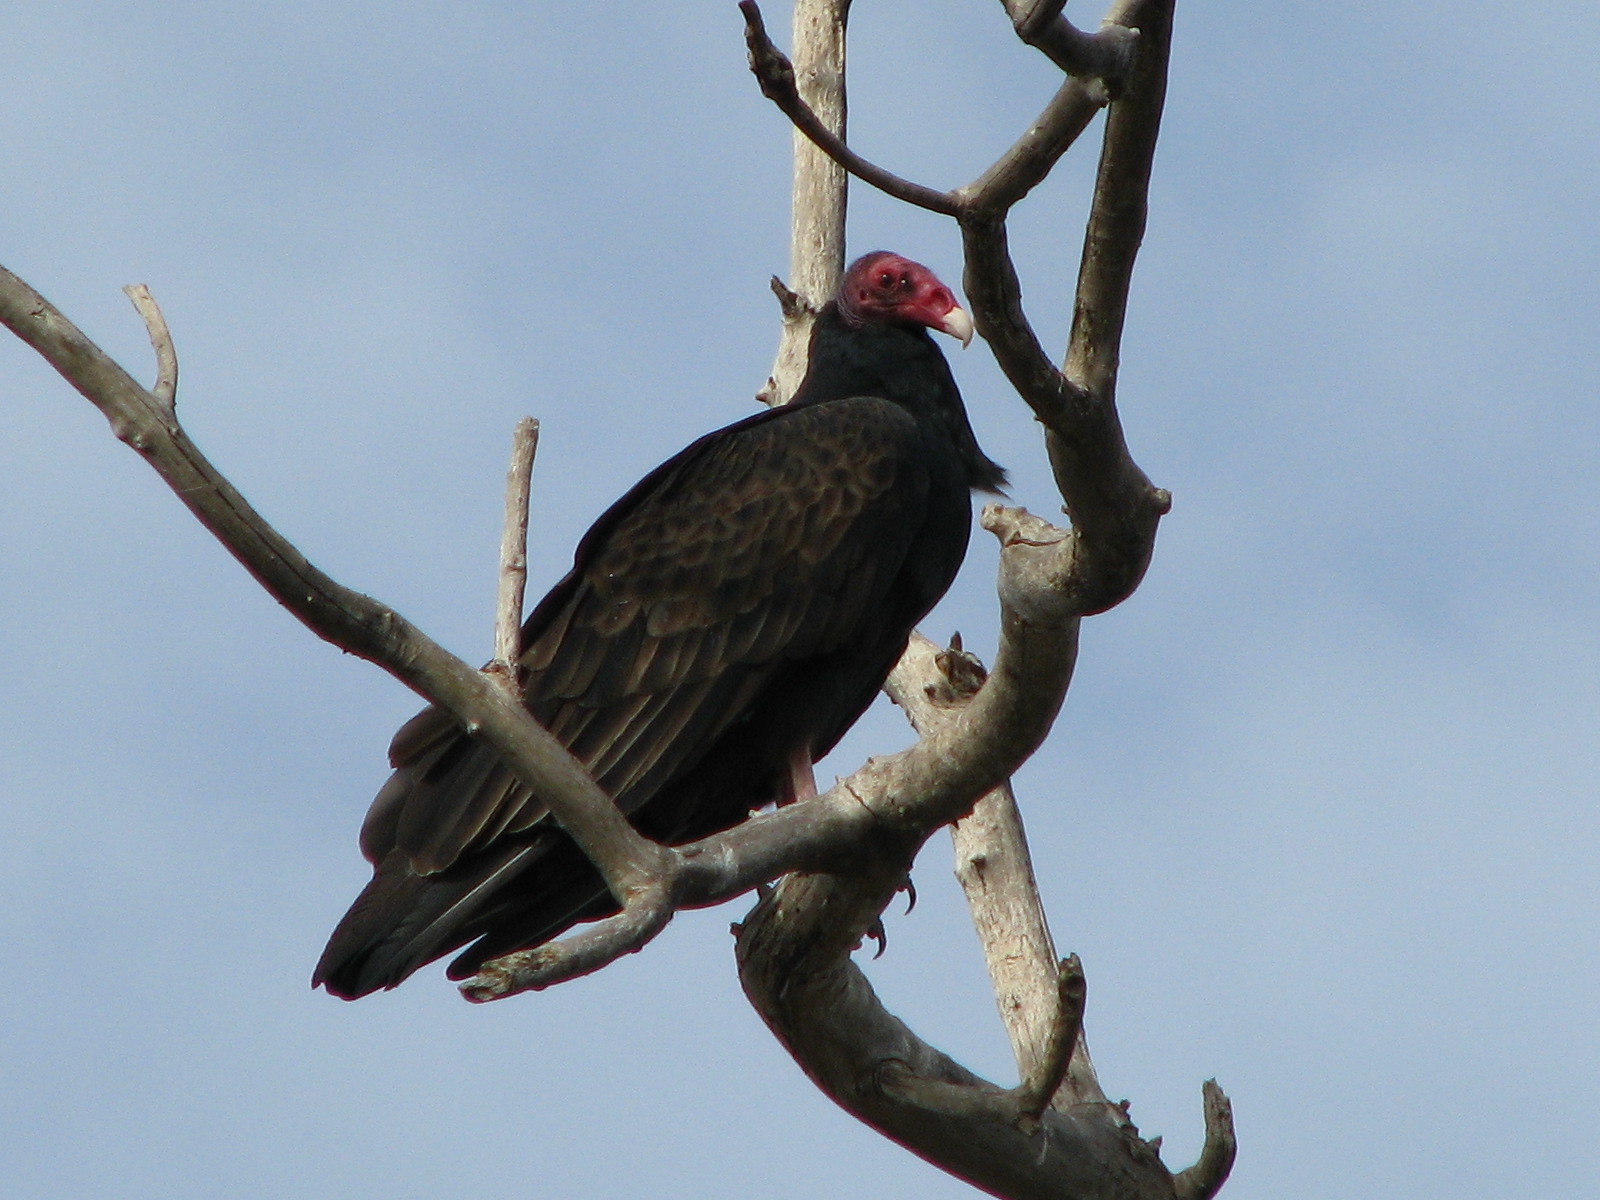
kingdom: Animalia
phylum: Chordata
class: Aves
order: Accipitriformes
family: Cathartidae
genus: Cathartes
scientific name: Cathartes aura
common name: Turkey vulture
